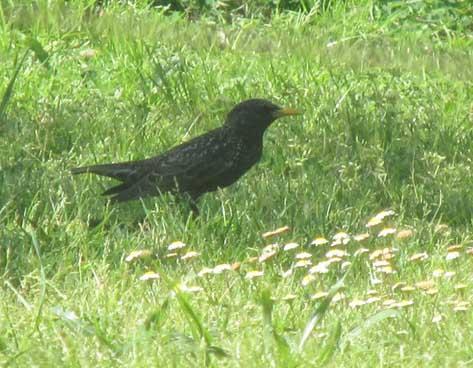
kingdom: Animalia
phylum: Chordata
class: Aves
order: Passeriformes
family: Sturnidae
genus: Sturnus
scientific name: Sturnus vulgaris
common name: Common starling
